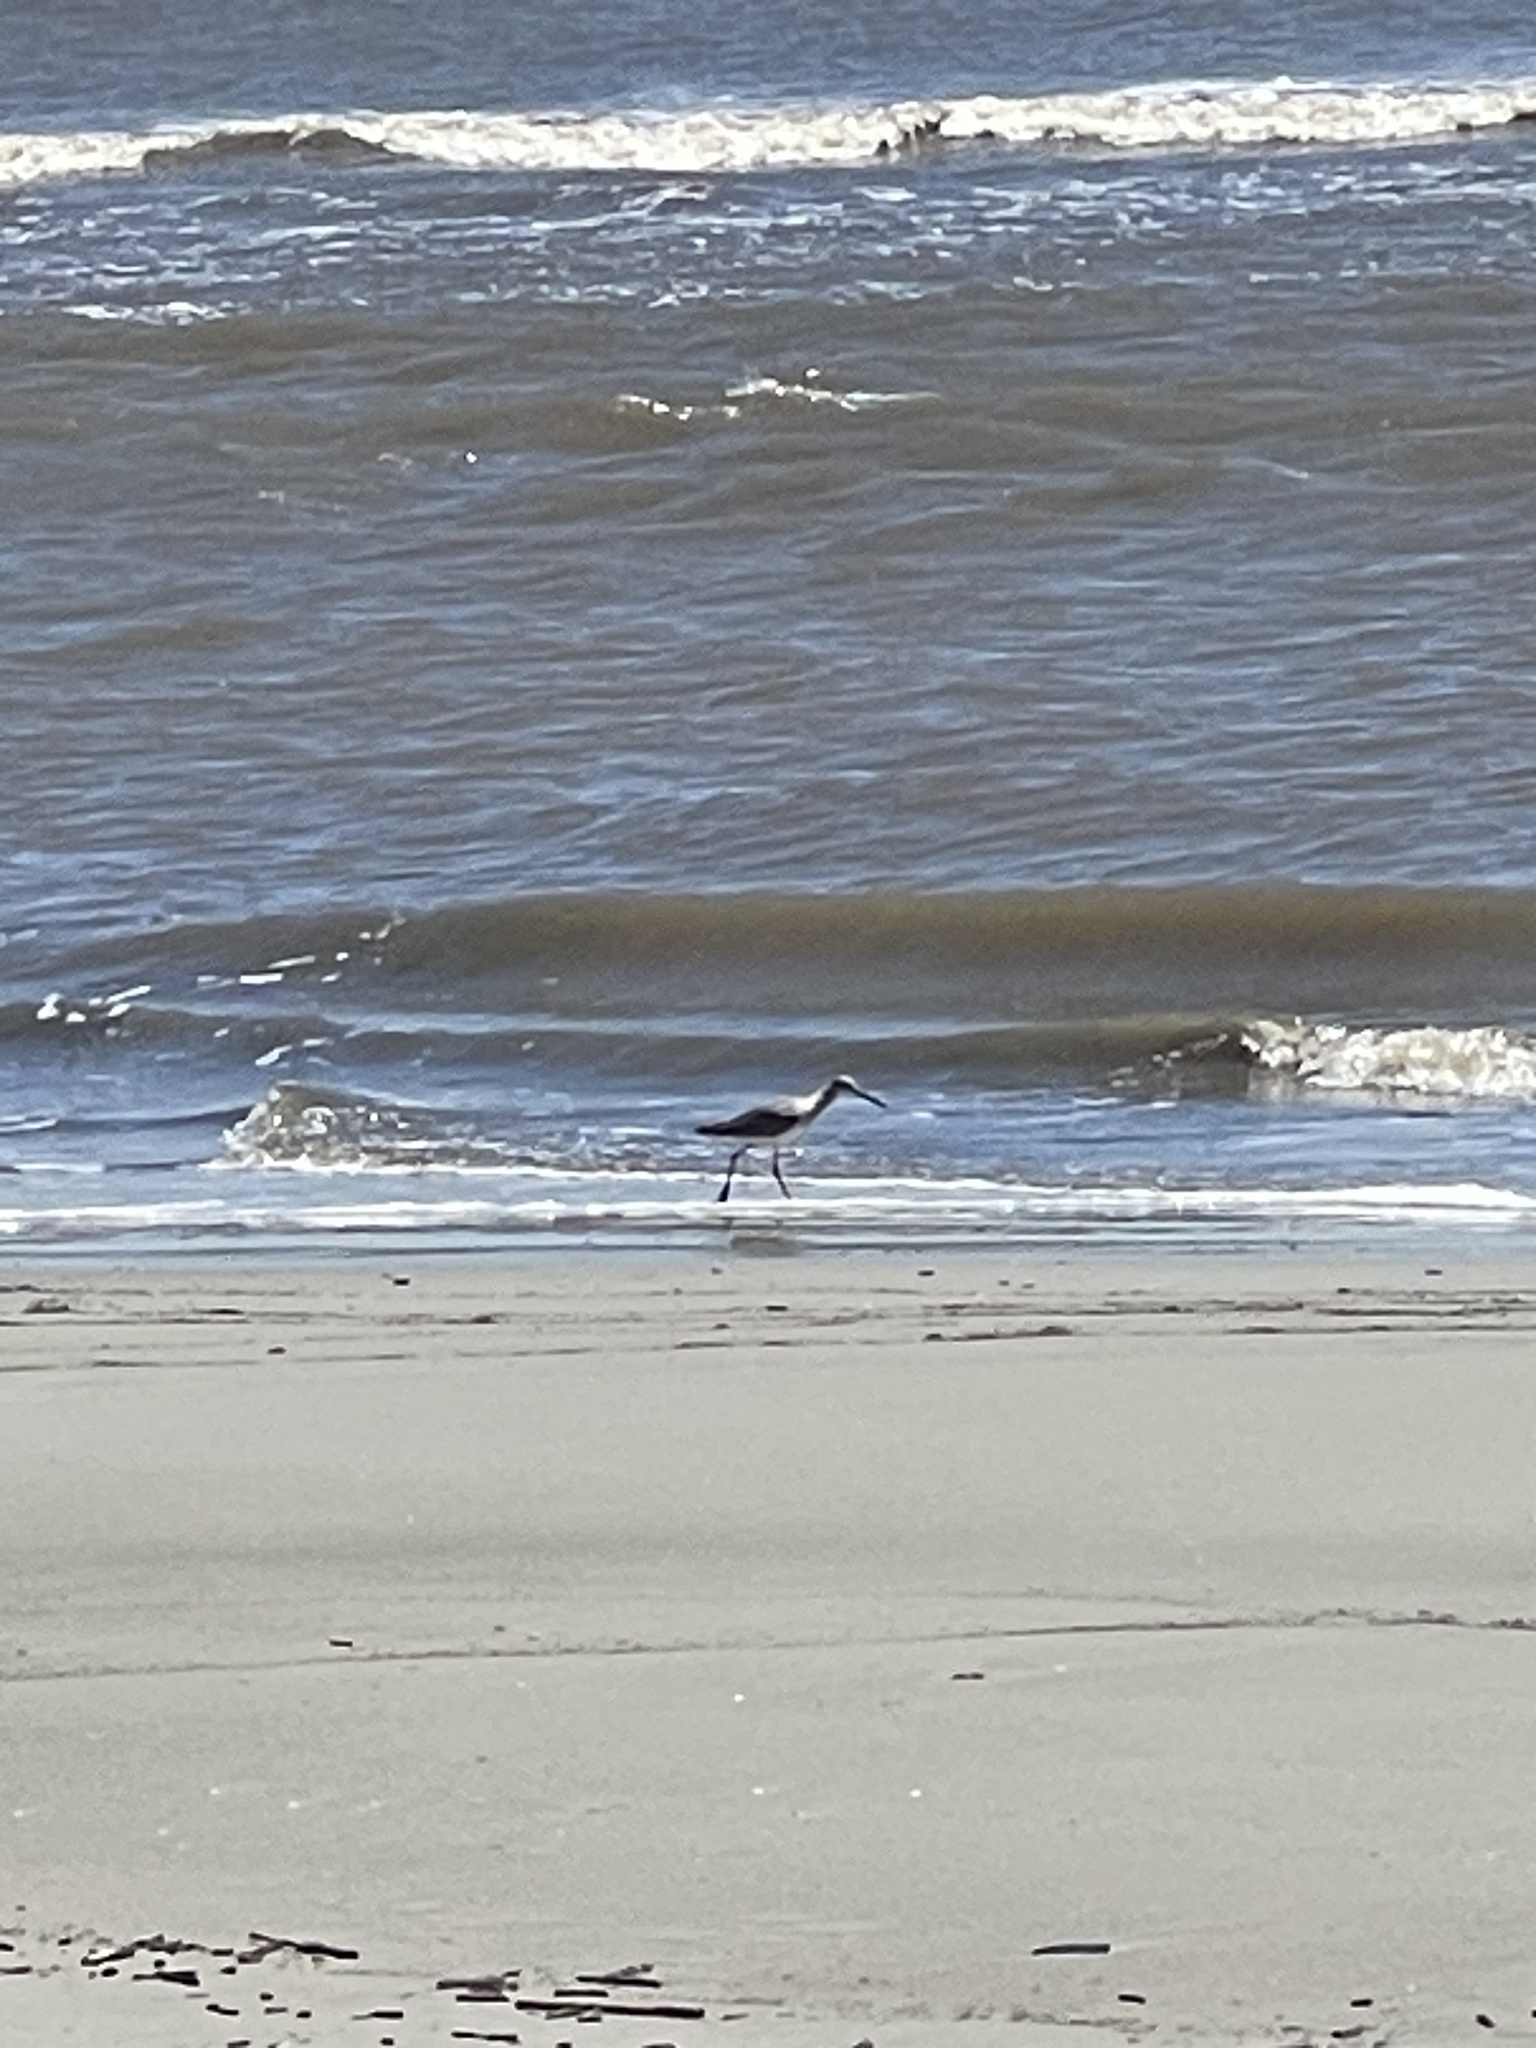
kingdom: Animalia
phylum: Chordata
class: Aves
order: Charadriiformes
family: Scolopacidae
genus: Tringa
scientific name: Tringa semipalmata
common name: Willet
